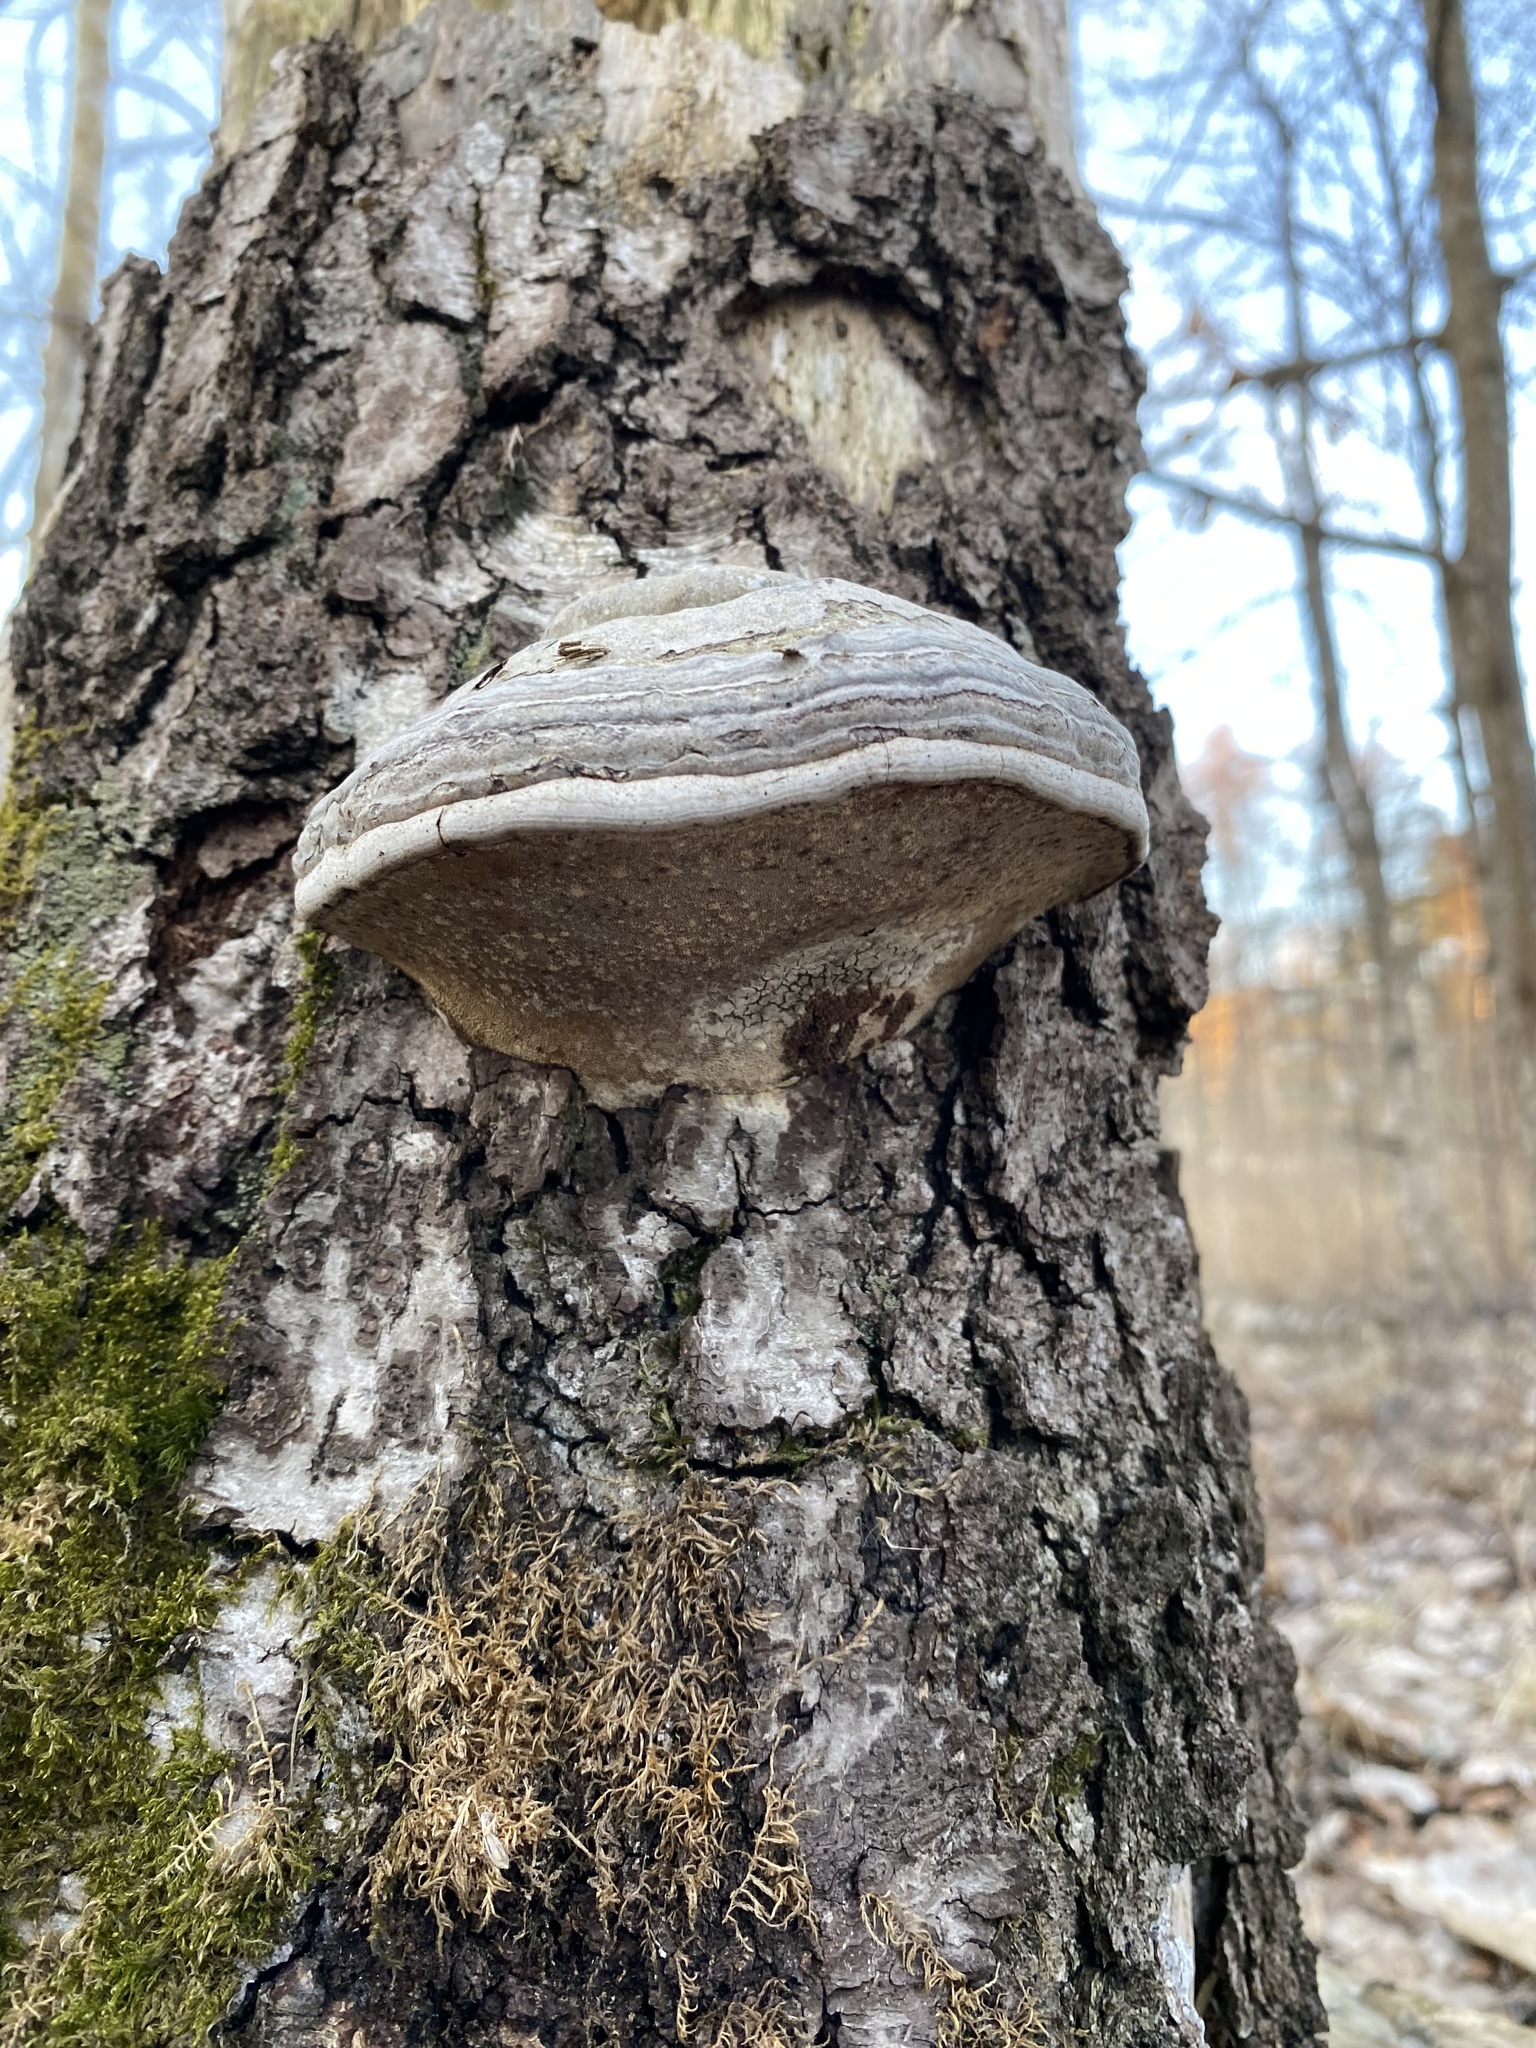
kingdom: Fungi
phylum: Basidiomycota
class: Agaricomycetes
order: Polyporales
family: Polyporaceae
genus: Fomes
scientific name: Fomes fomentarius
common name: Hoof fungus
